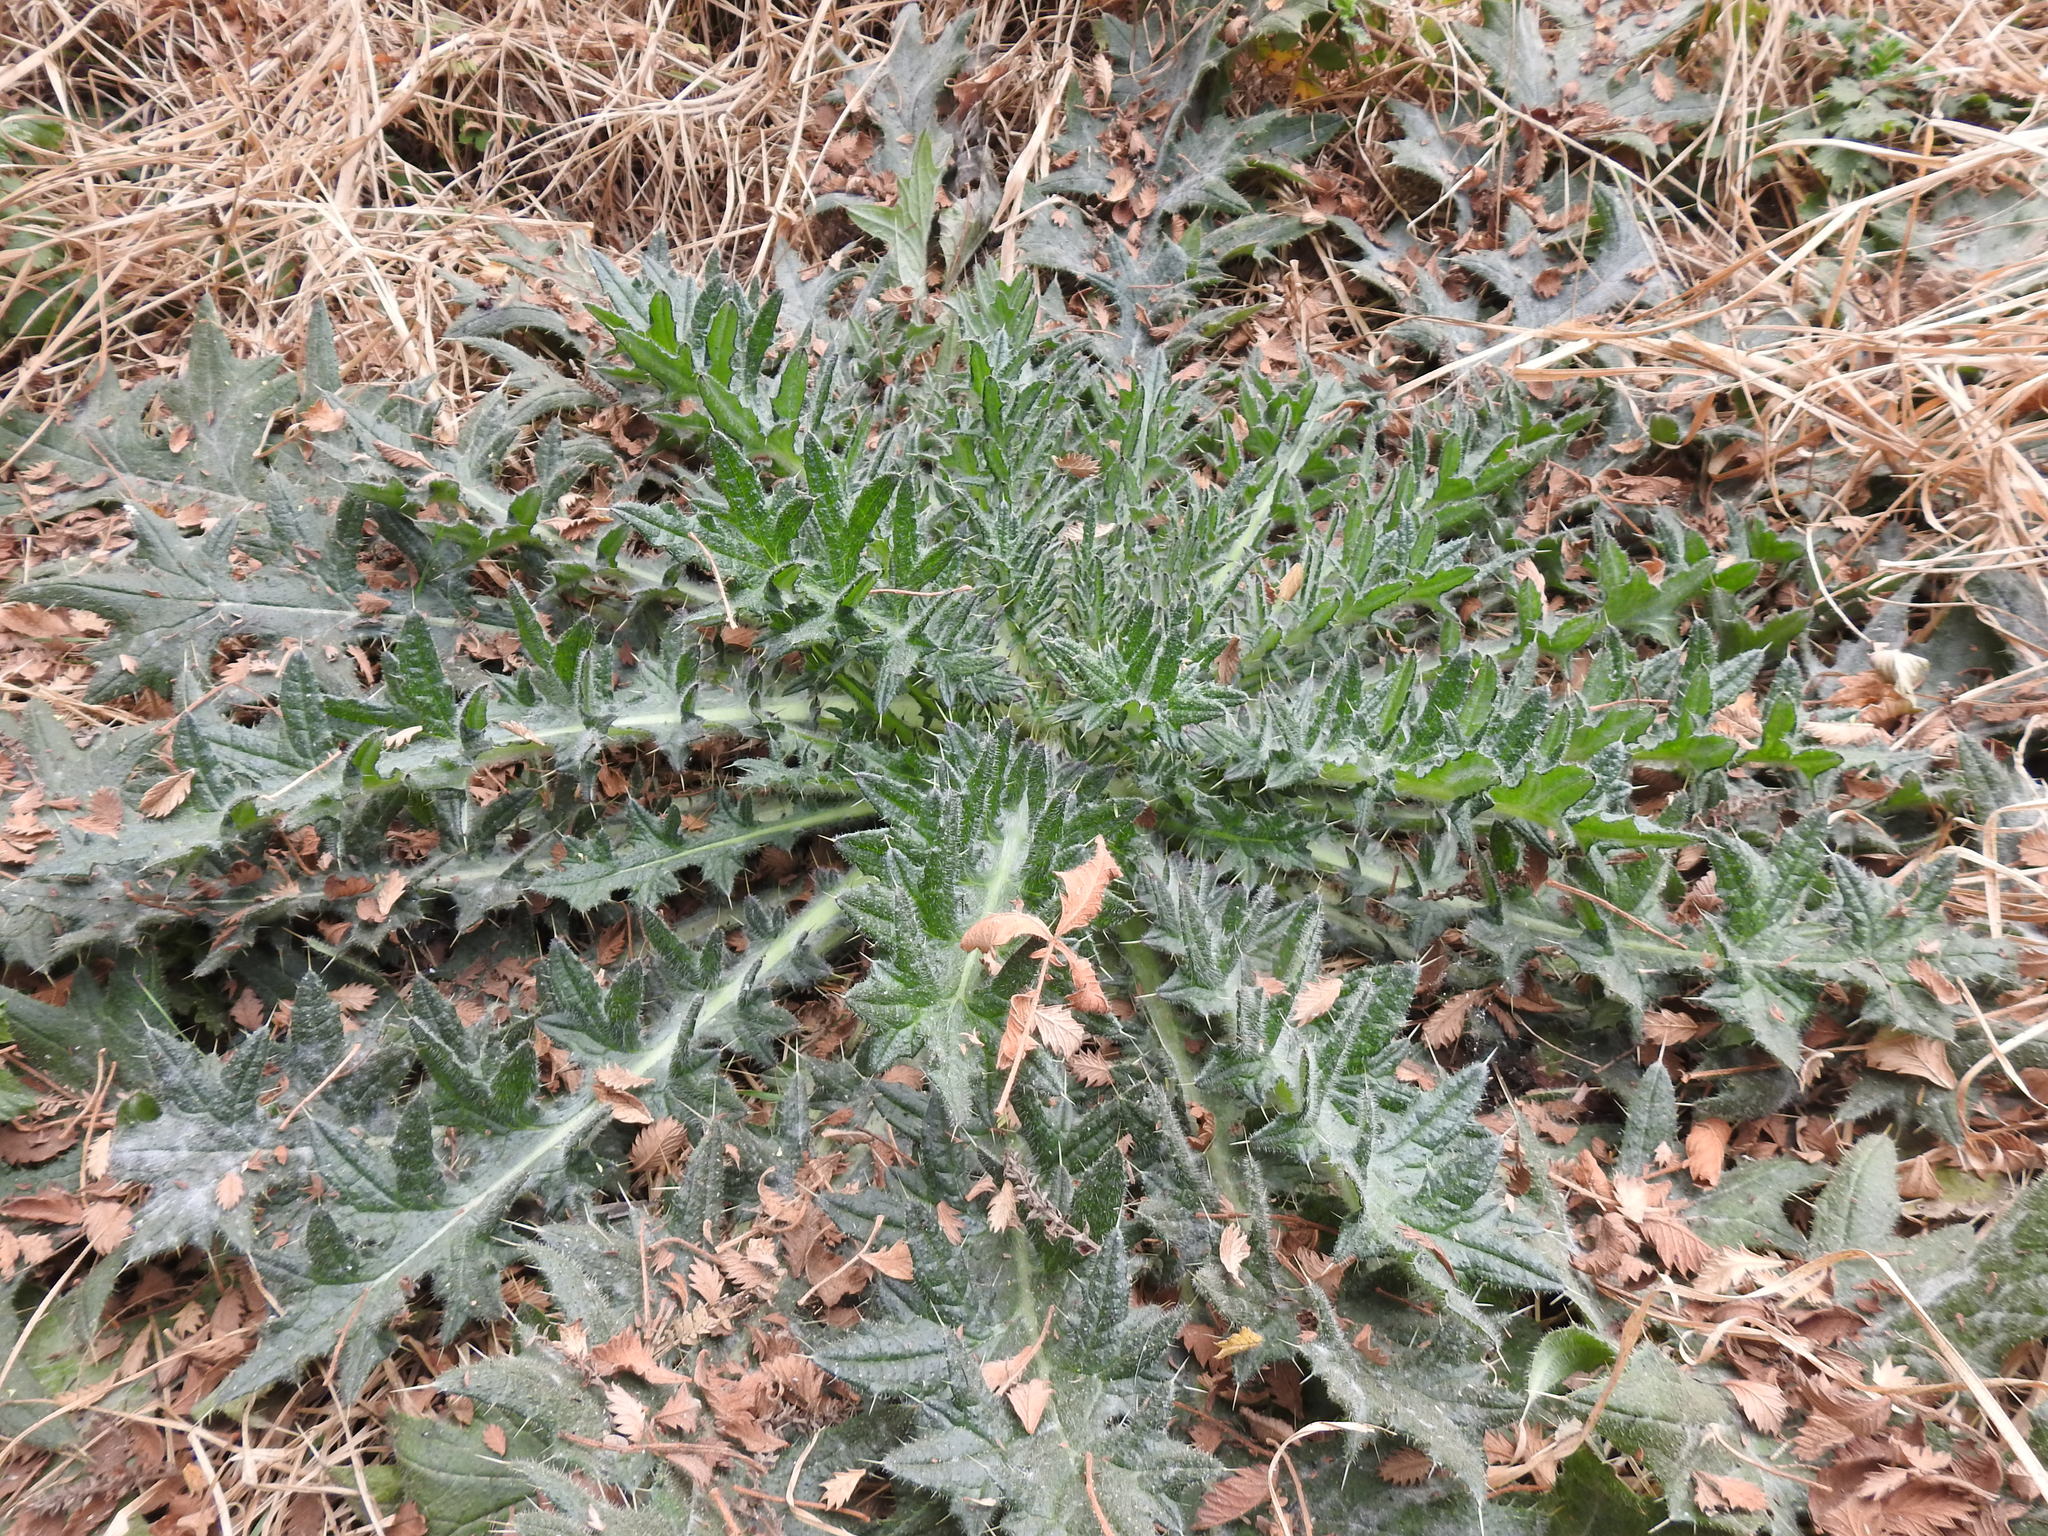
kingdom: Plantae
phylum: Tracheophyta
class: Magnoliopsida
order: Asterales
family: Asteraceae
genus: Cirsium
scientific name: Cirsium vulgare
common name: Bull thistle
